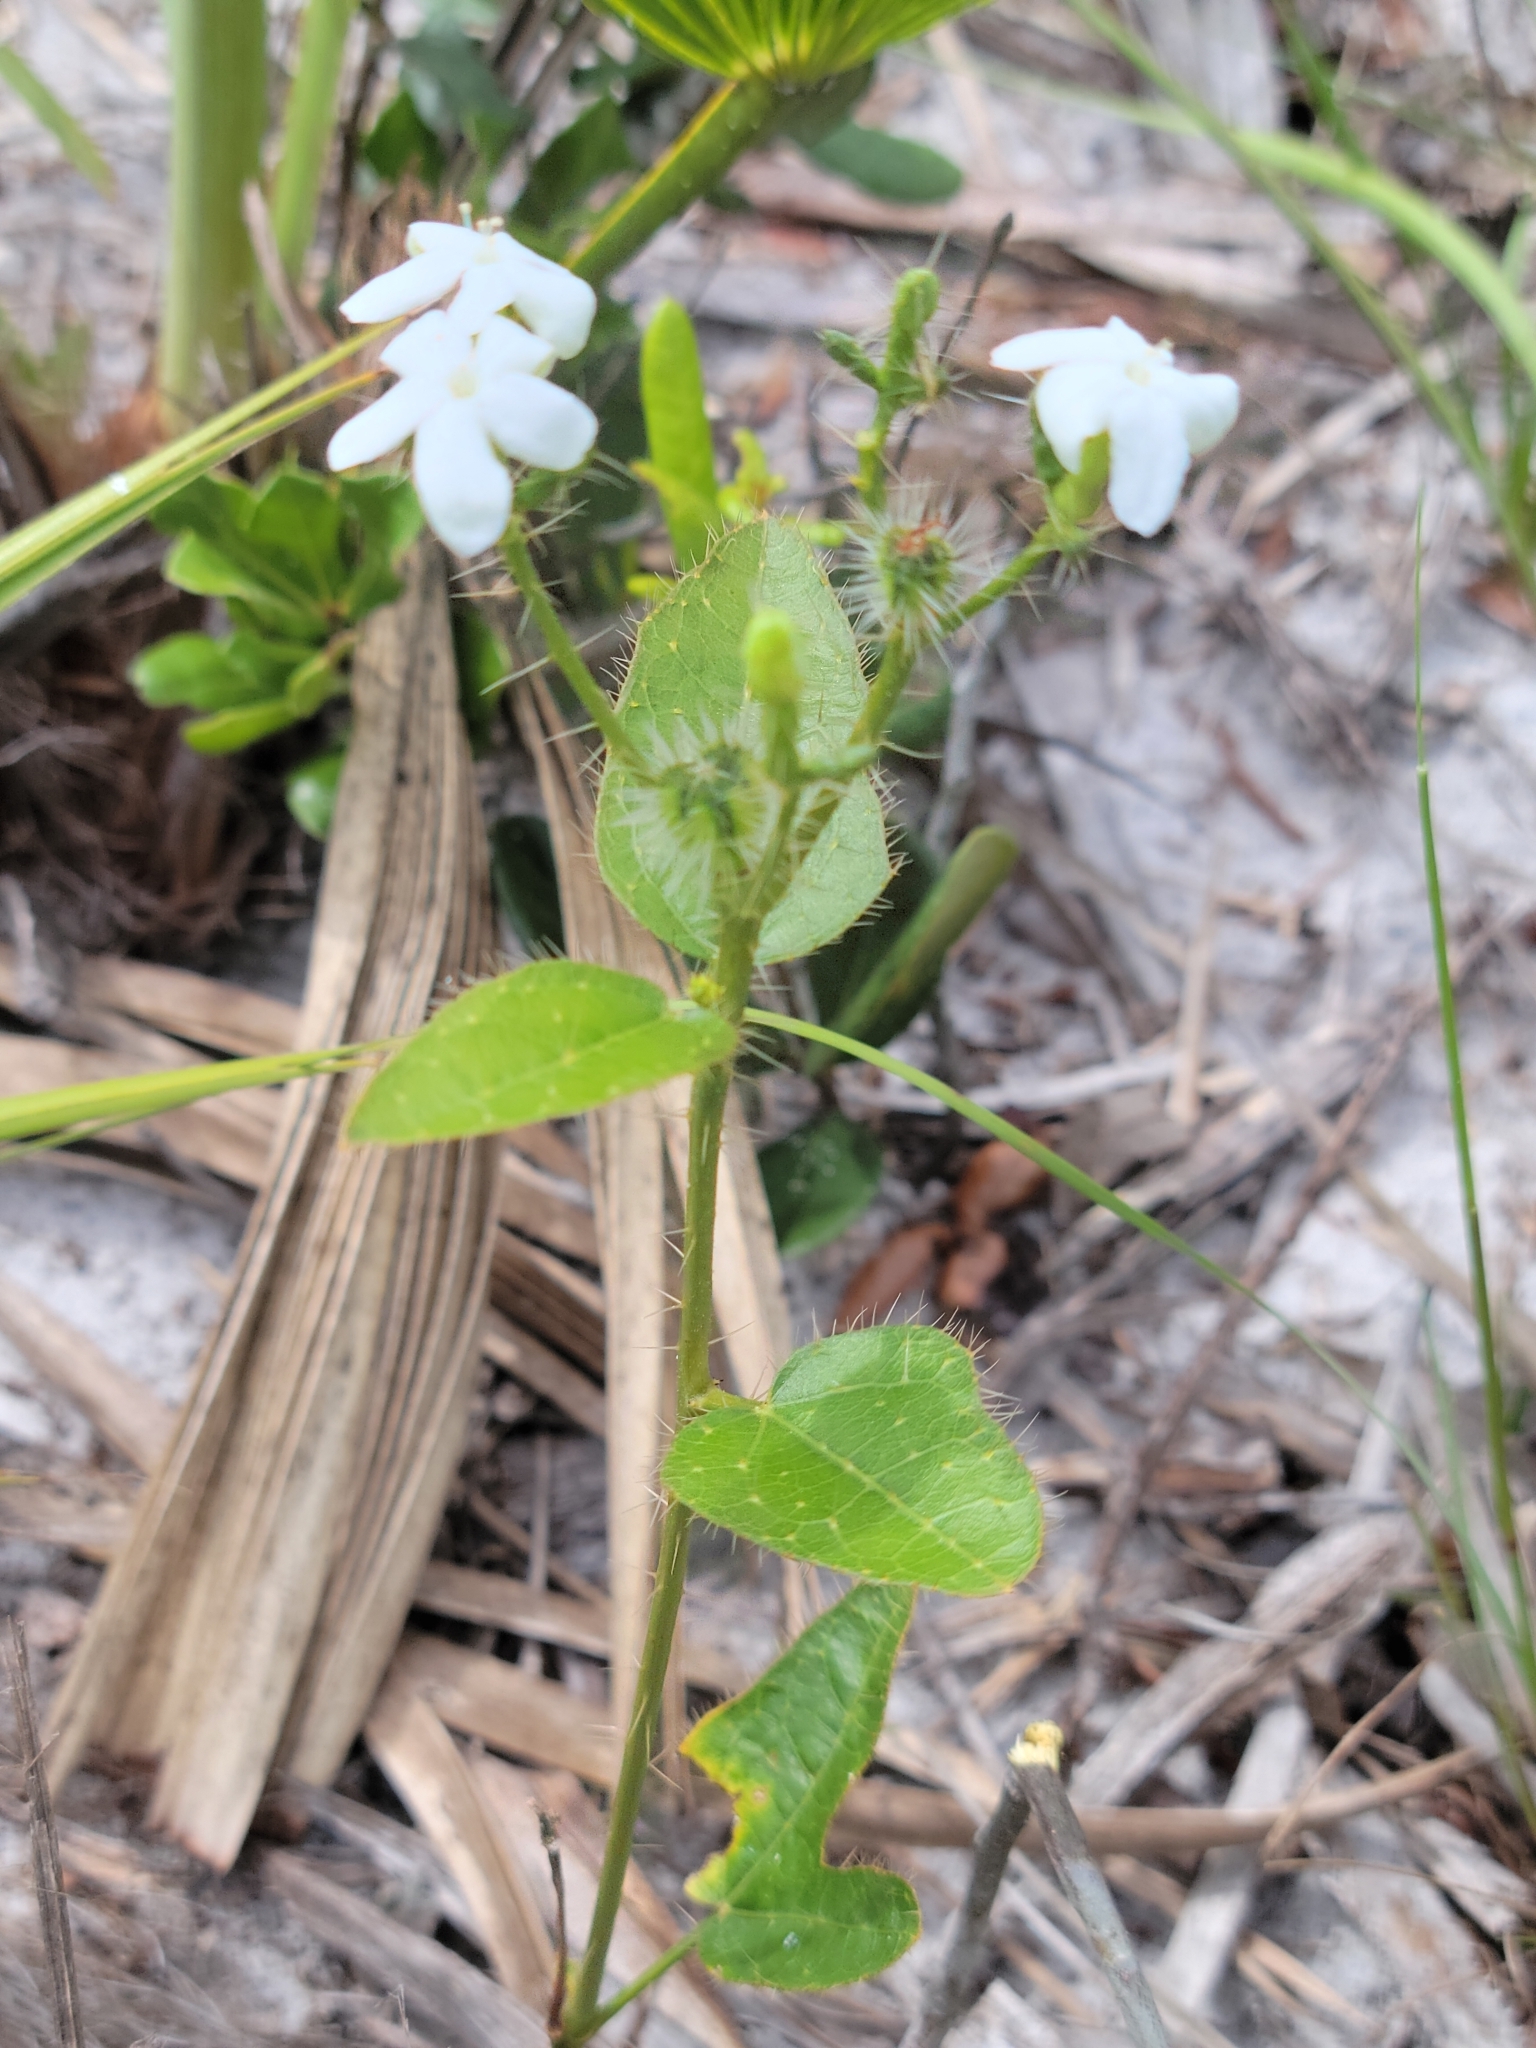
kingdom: Plantae
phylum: Tracheophyta
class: Magnoliopsida
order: Malpighiales
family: Euphorbiaceae
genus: Cnidoscolus
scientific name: Cnidoscolus stimulosus
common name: Bull-nettle
